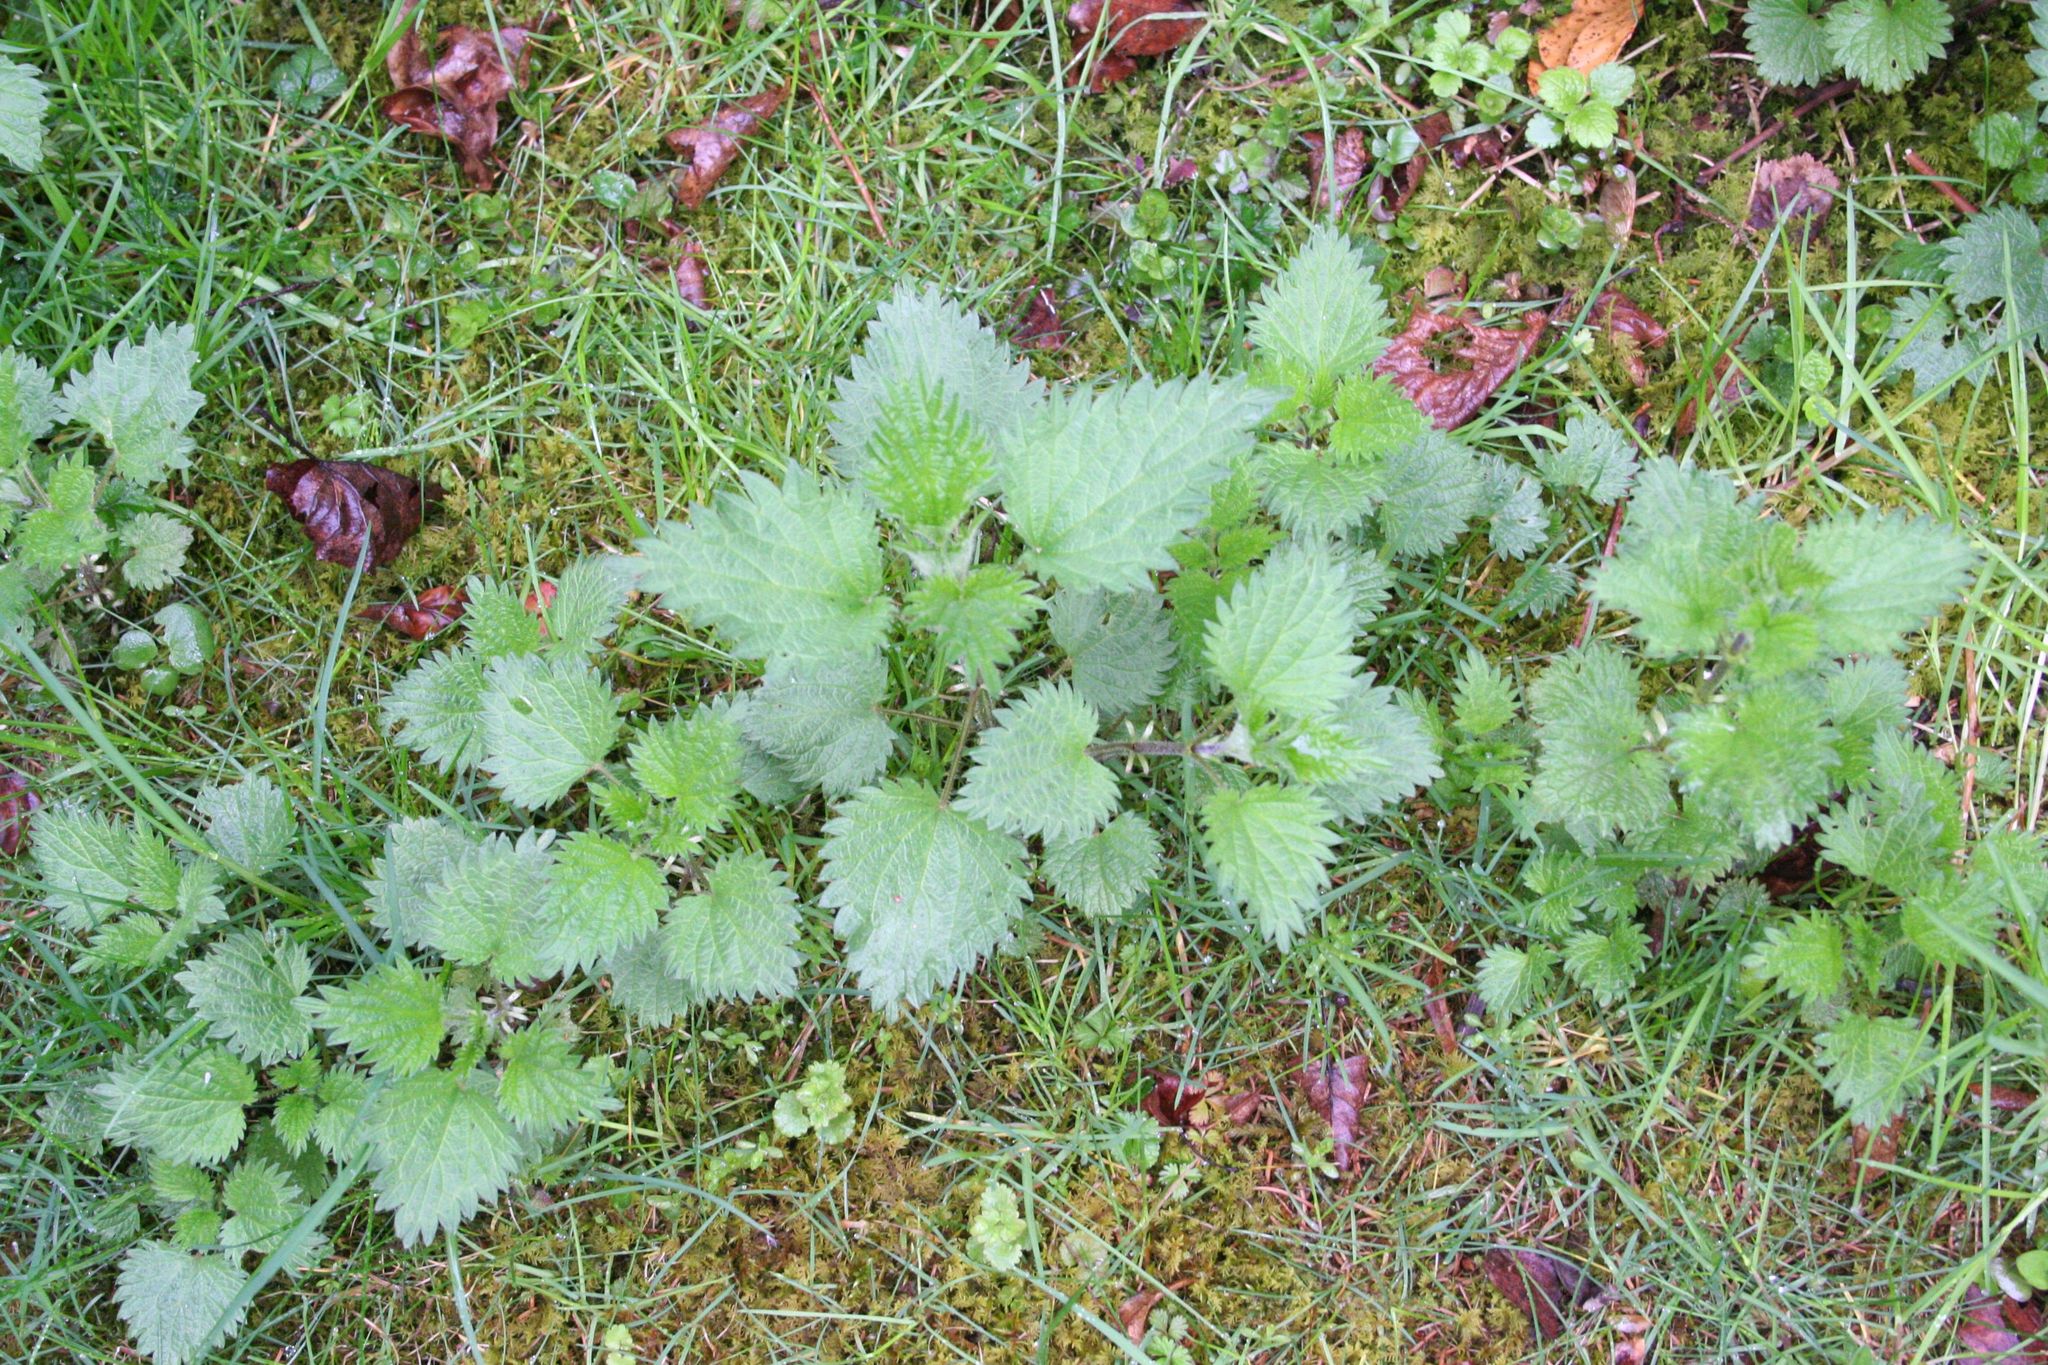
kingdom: Plantae
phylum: Tracheophyta
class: Magnoliopsida
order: Rosales
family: Urticaceae
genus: Urtica
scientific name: Urtica dioica
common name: Common nettle
